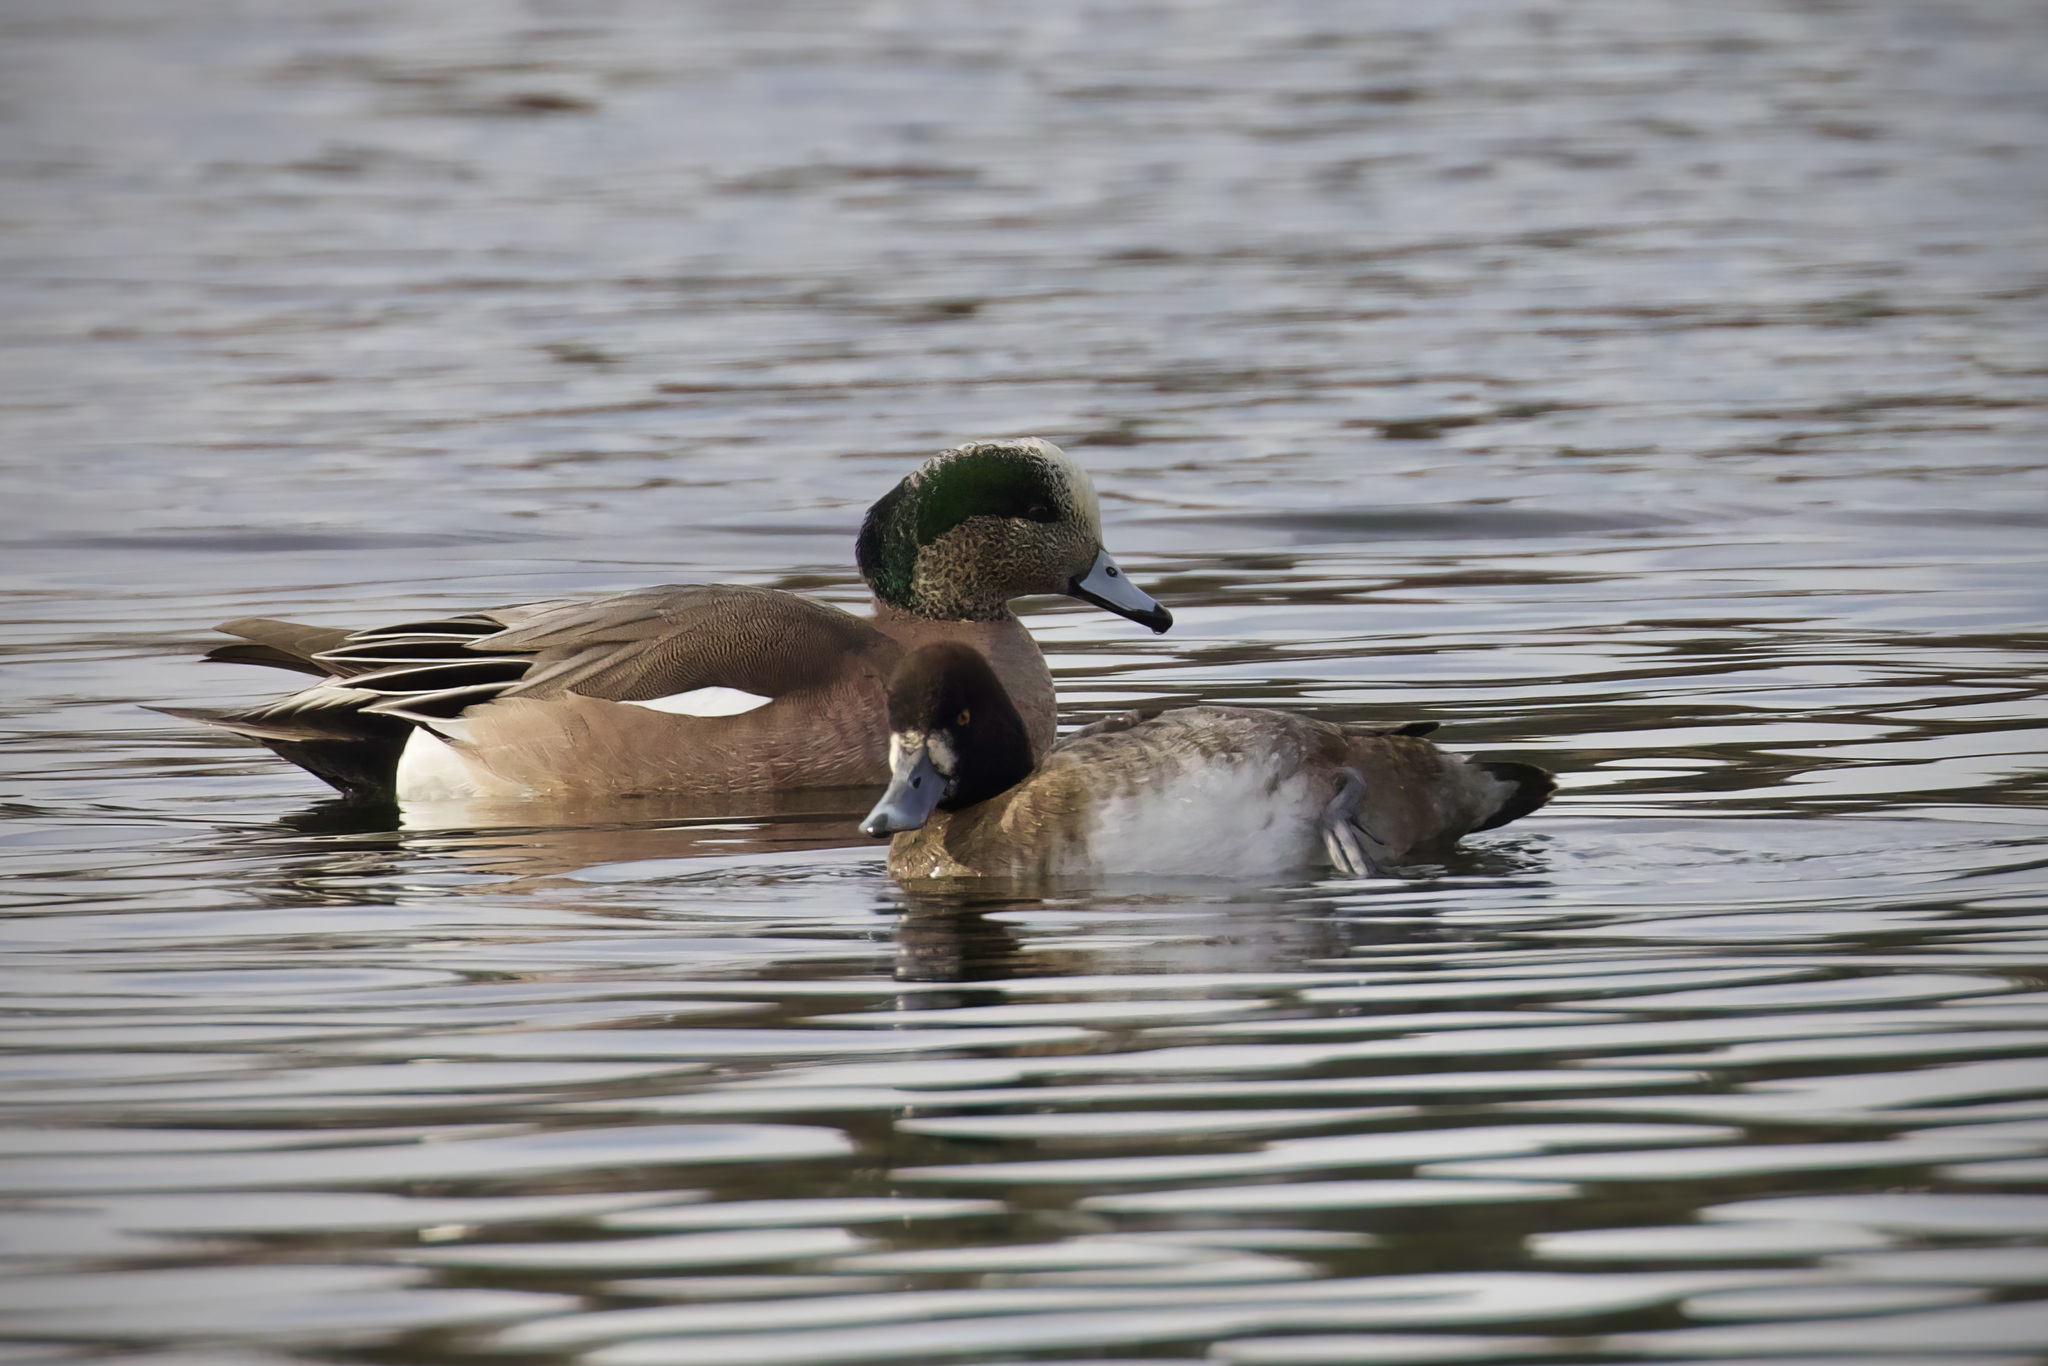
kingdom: Animalia
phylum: Chordata
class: Aves
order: Anseriformes
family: Anatidae
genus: Mareca
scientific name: Mareca americana
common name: American wigeon
